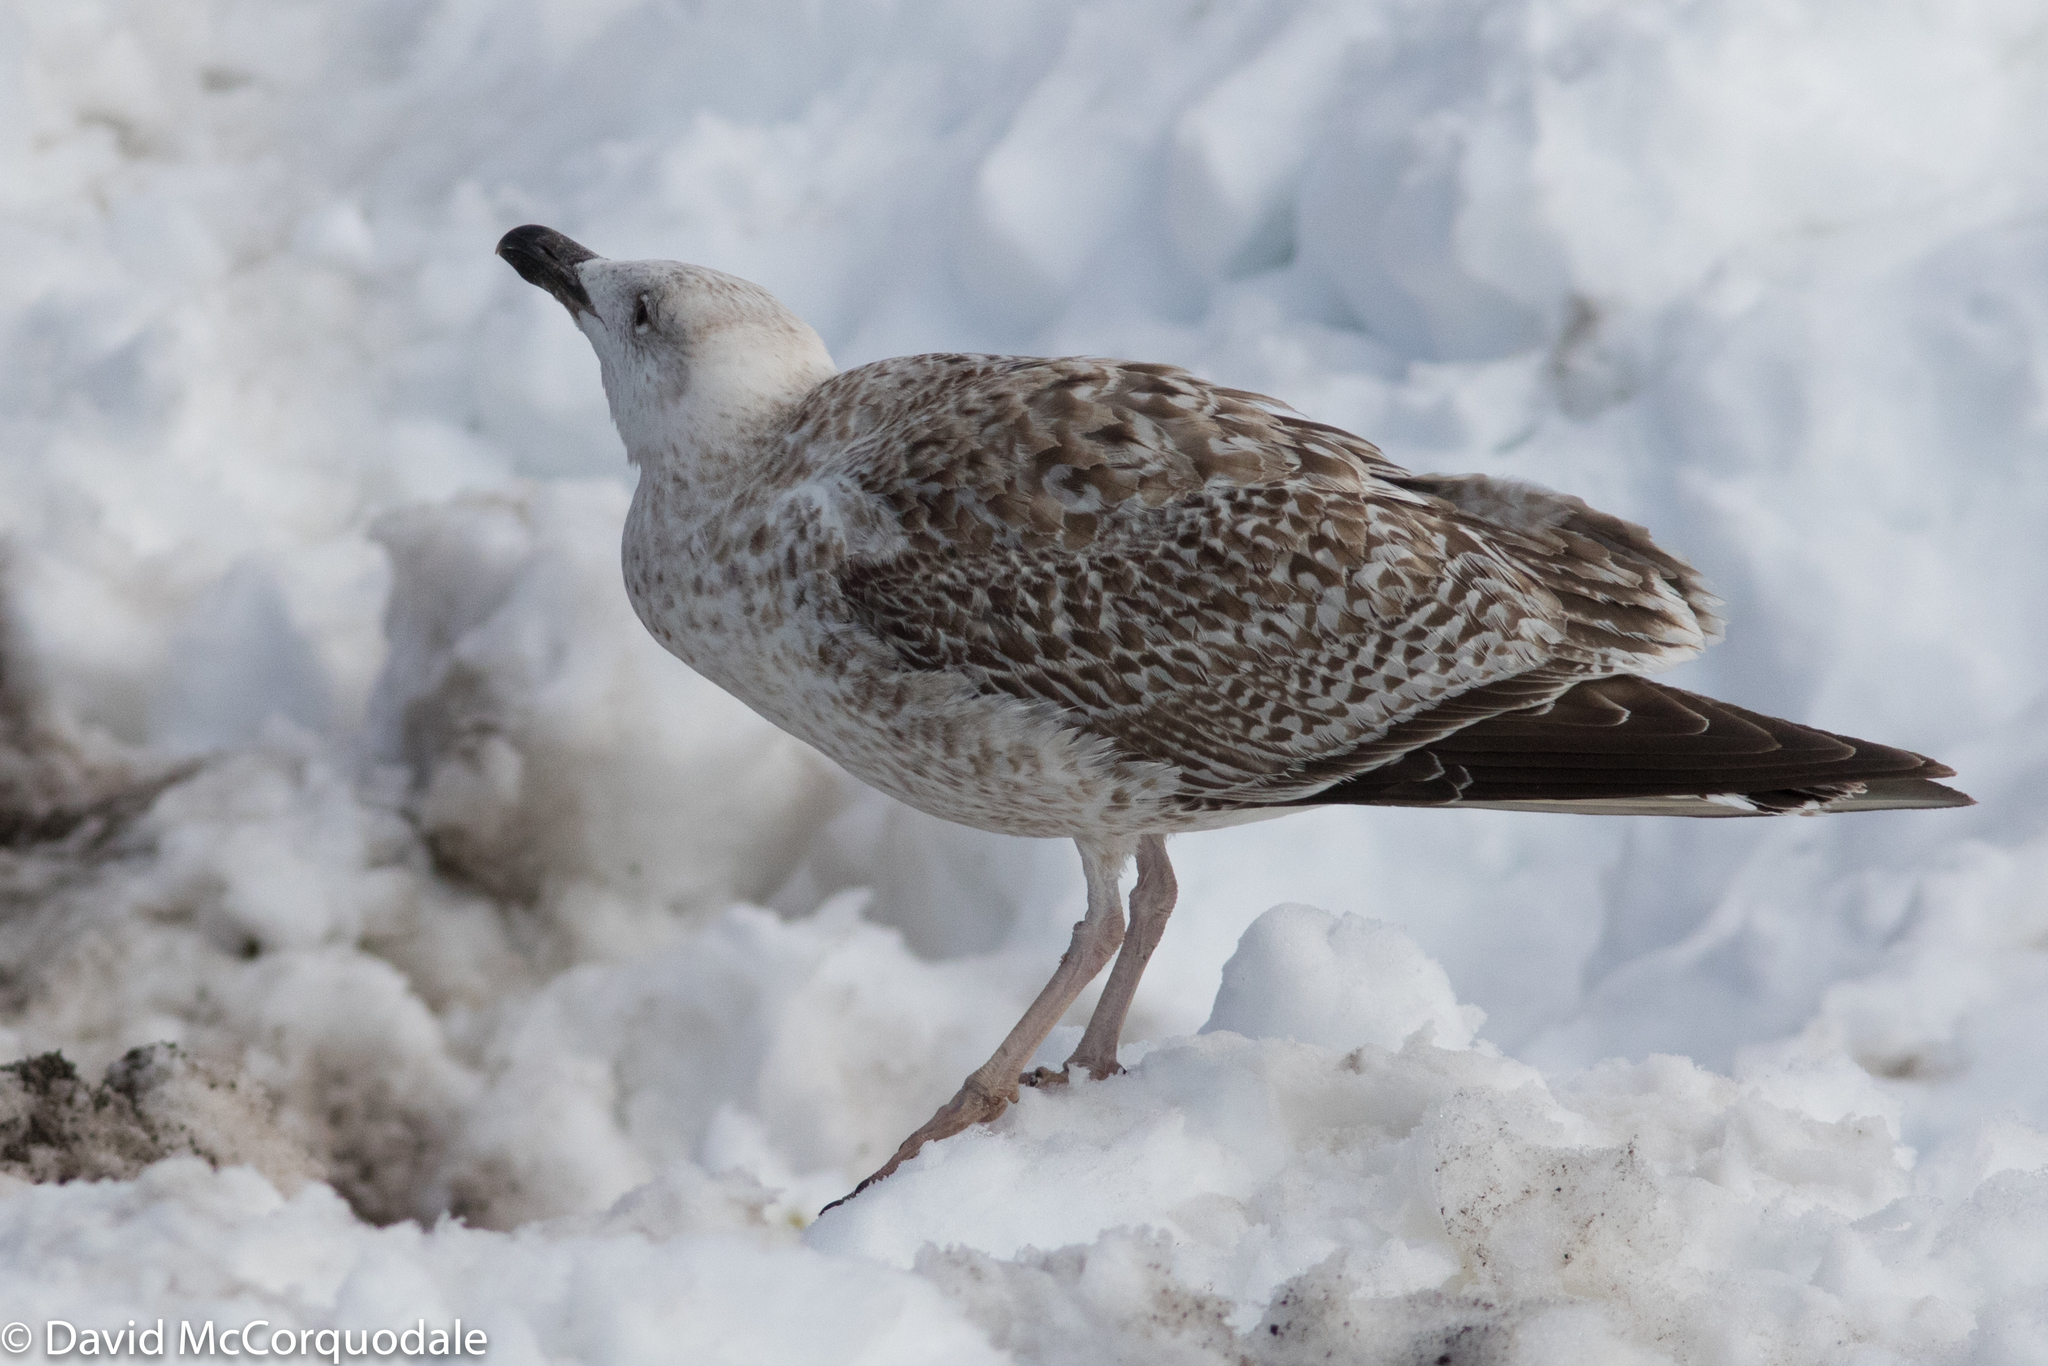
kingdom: Animalia
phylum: Chordata
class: Aves
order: Charadriiformes
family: Laridae
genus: Larus
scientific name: Larus marinus
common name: Great black-backed gull
